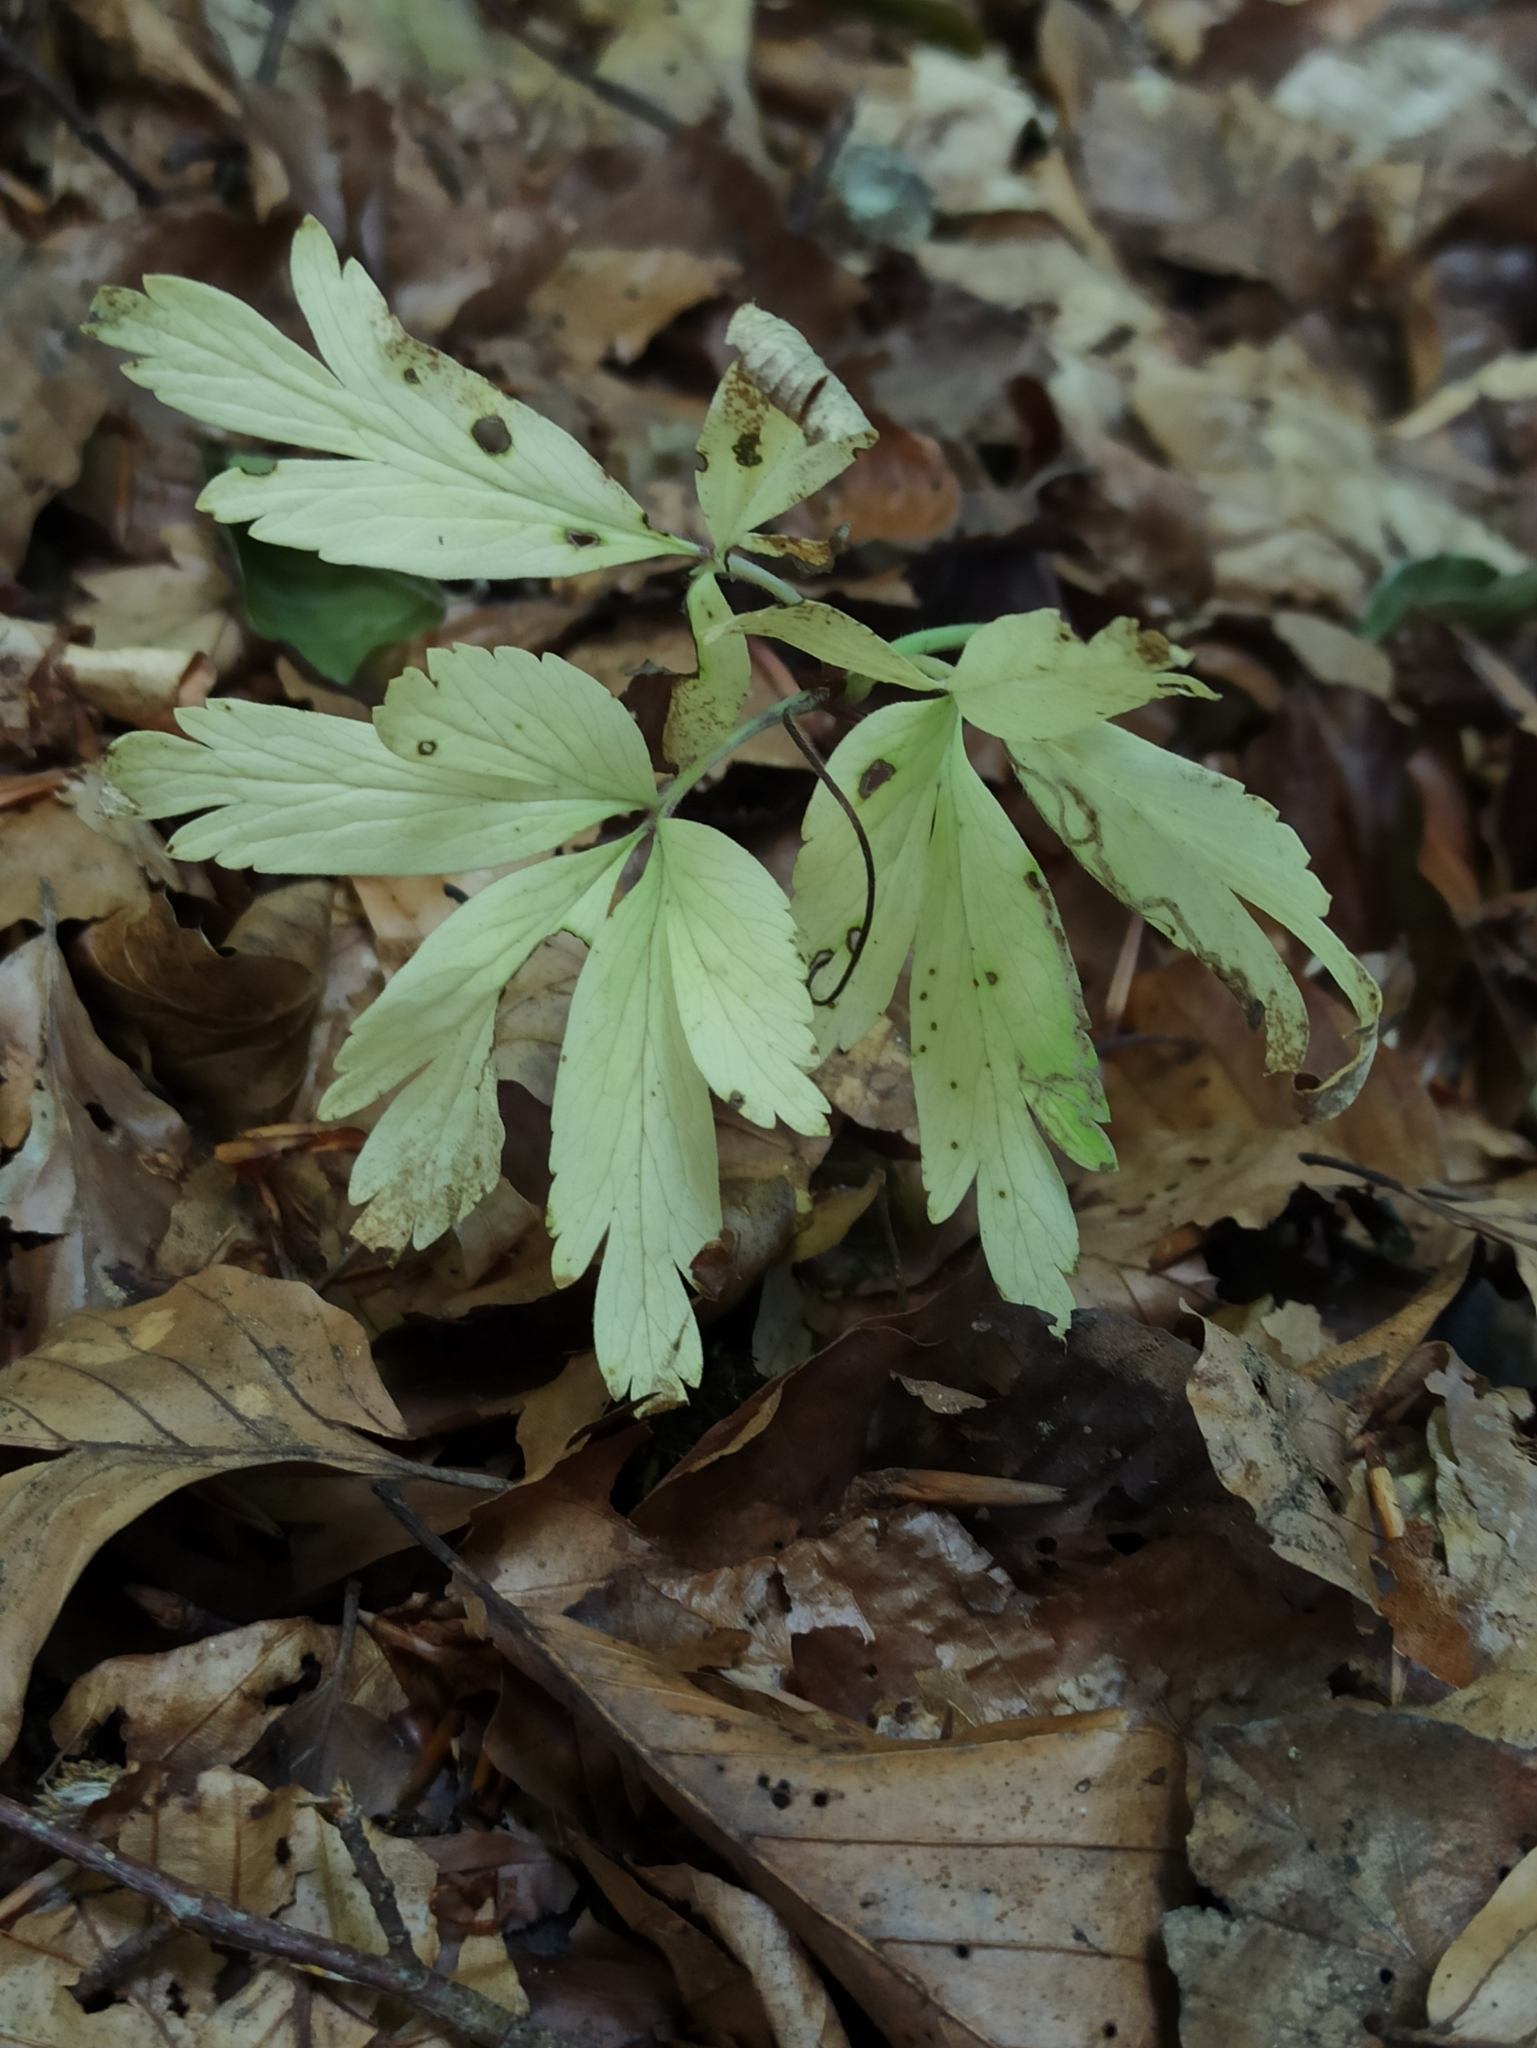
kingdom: Plantae
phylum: Tracheophyta
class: Magnoliopsida
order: Ranunculales
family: Ranunculaceae
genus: Anemone
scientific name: Anemone nemorosa
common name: Wood anemone
